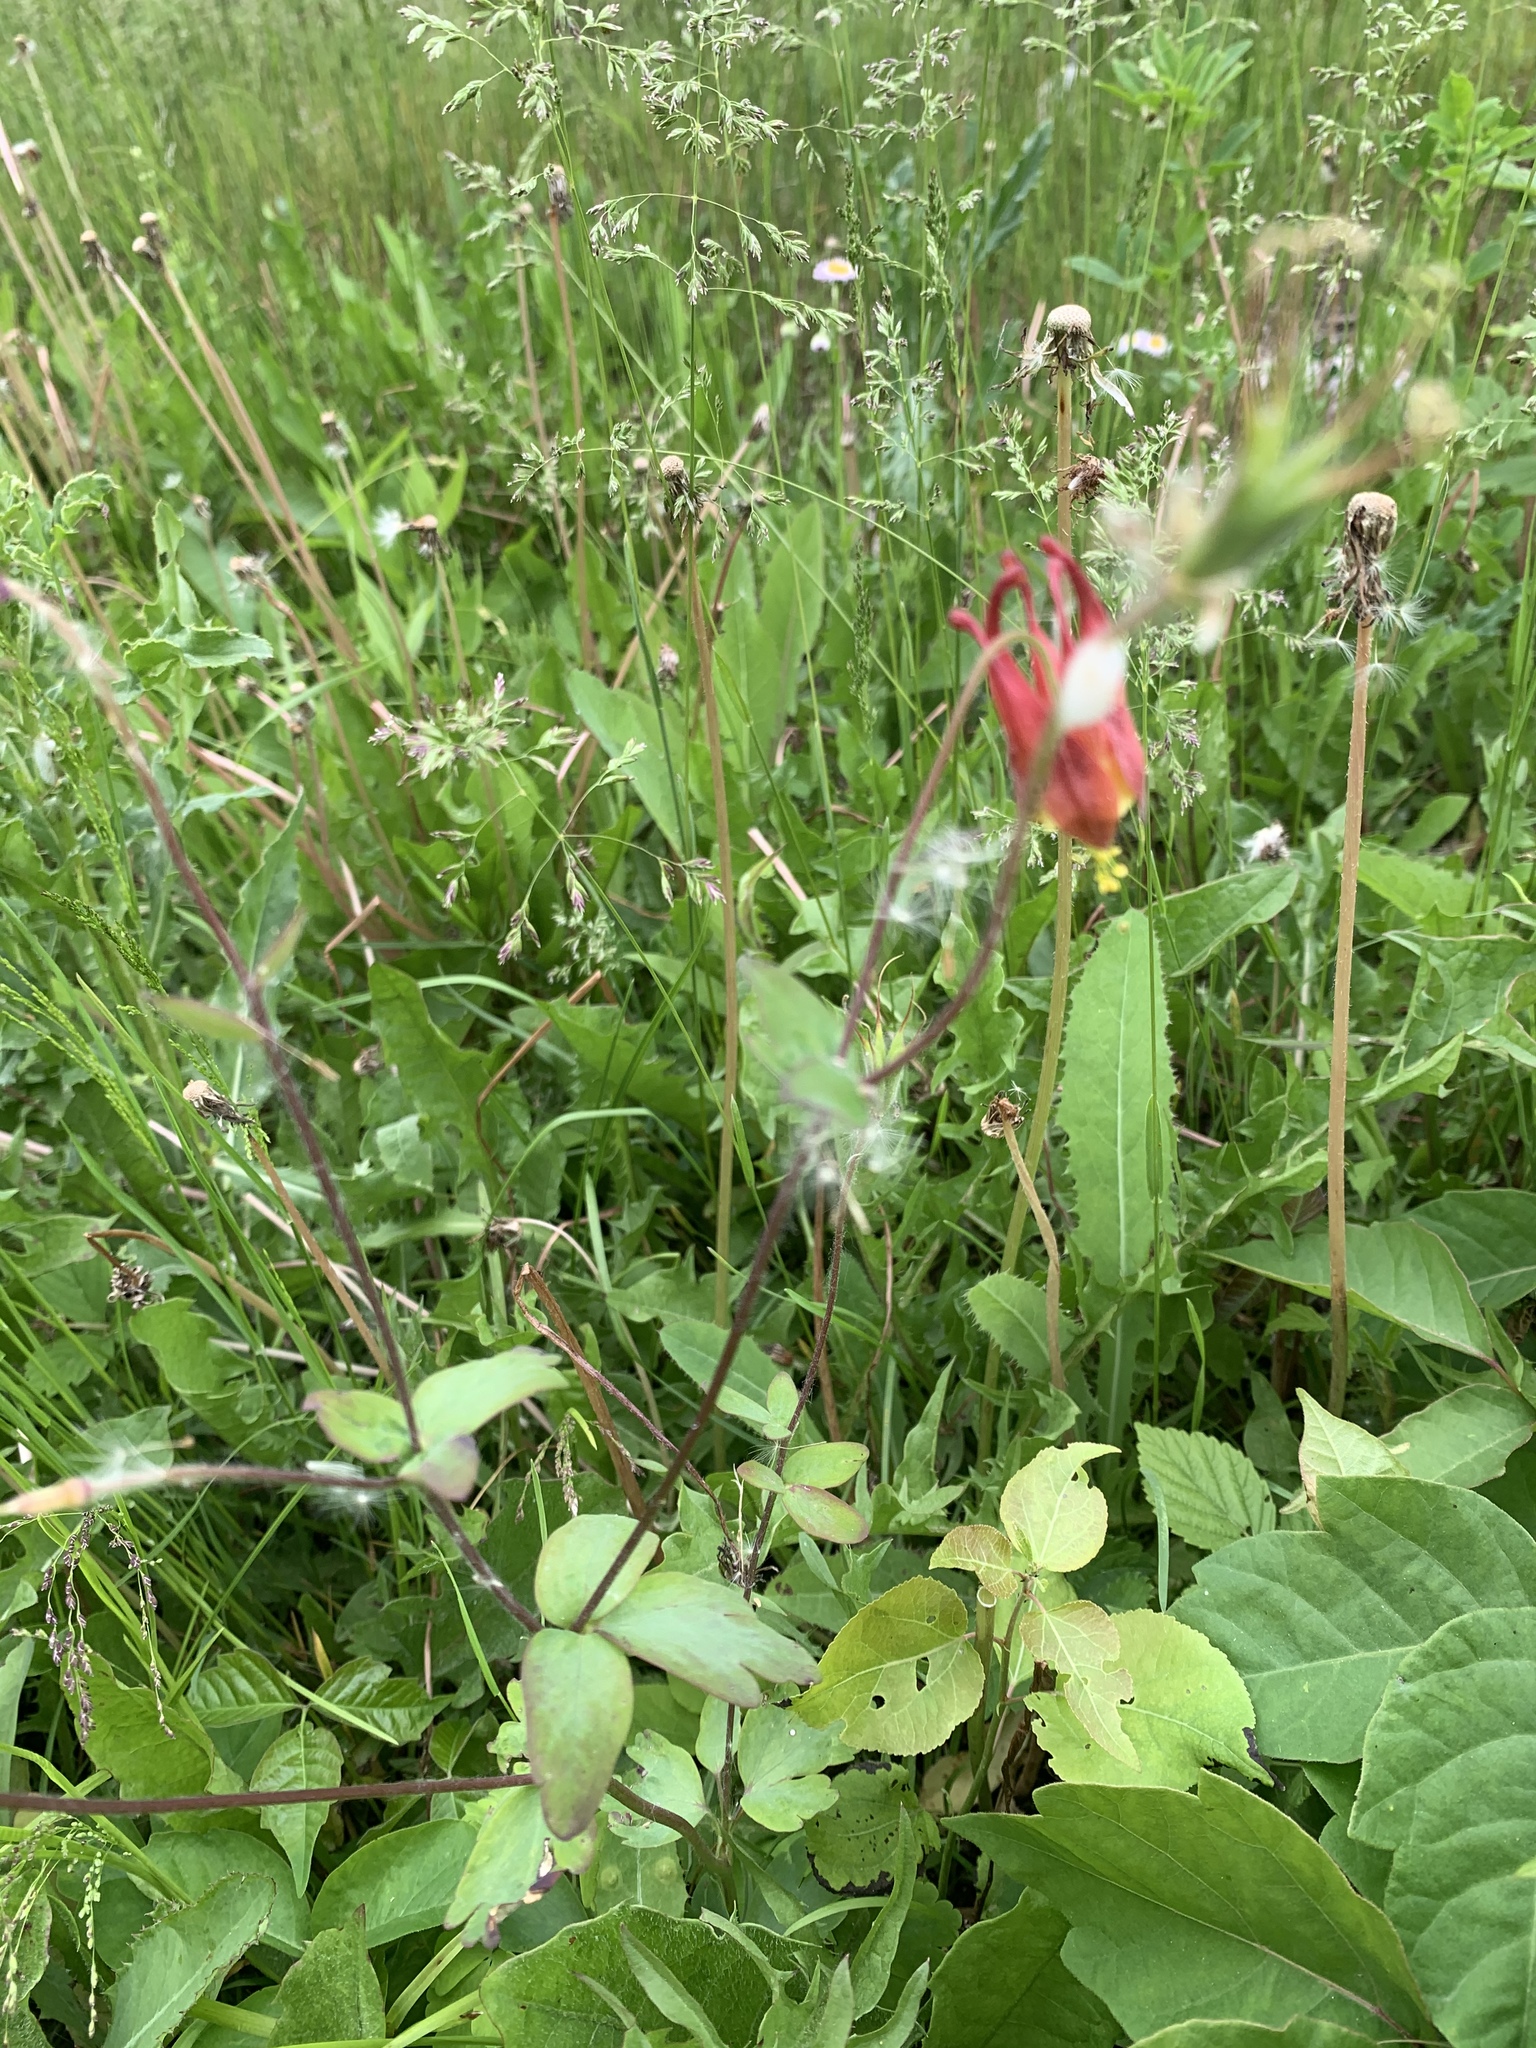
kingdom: Plantae
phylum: Tracheophyta
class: Magnoliopsida
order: Ranunculales
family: Ranunculaceae
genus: Aquilegia
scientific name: Aquilegia canadensis
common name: American columbine
